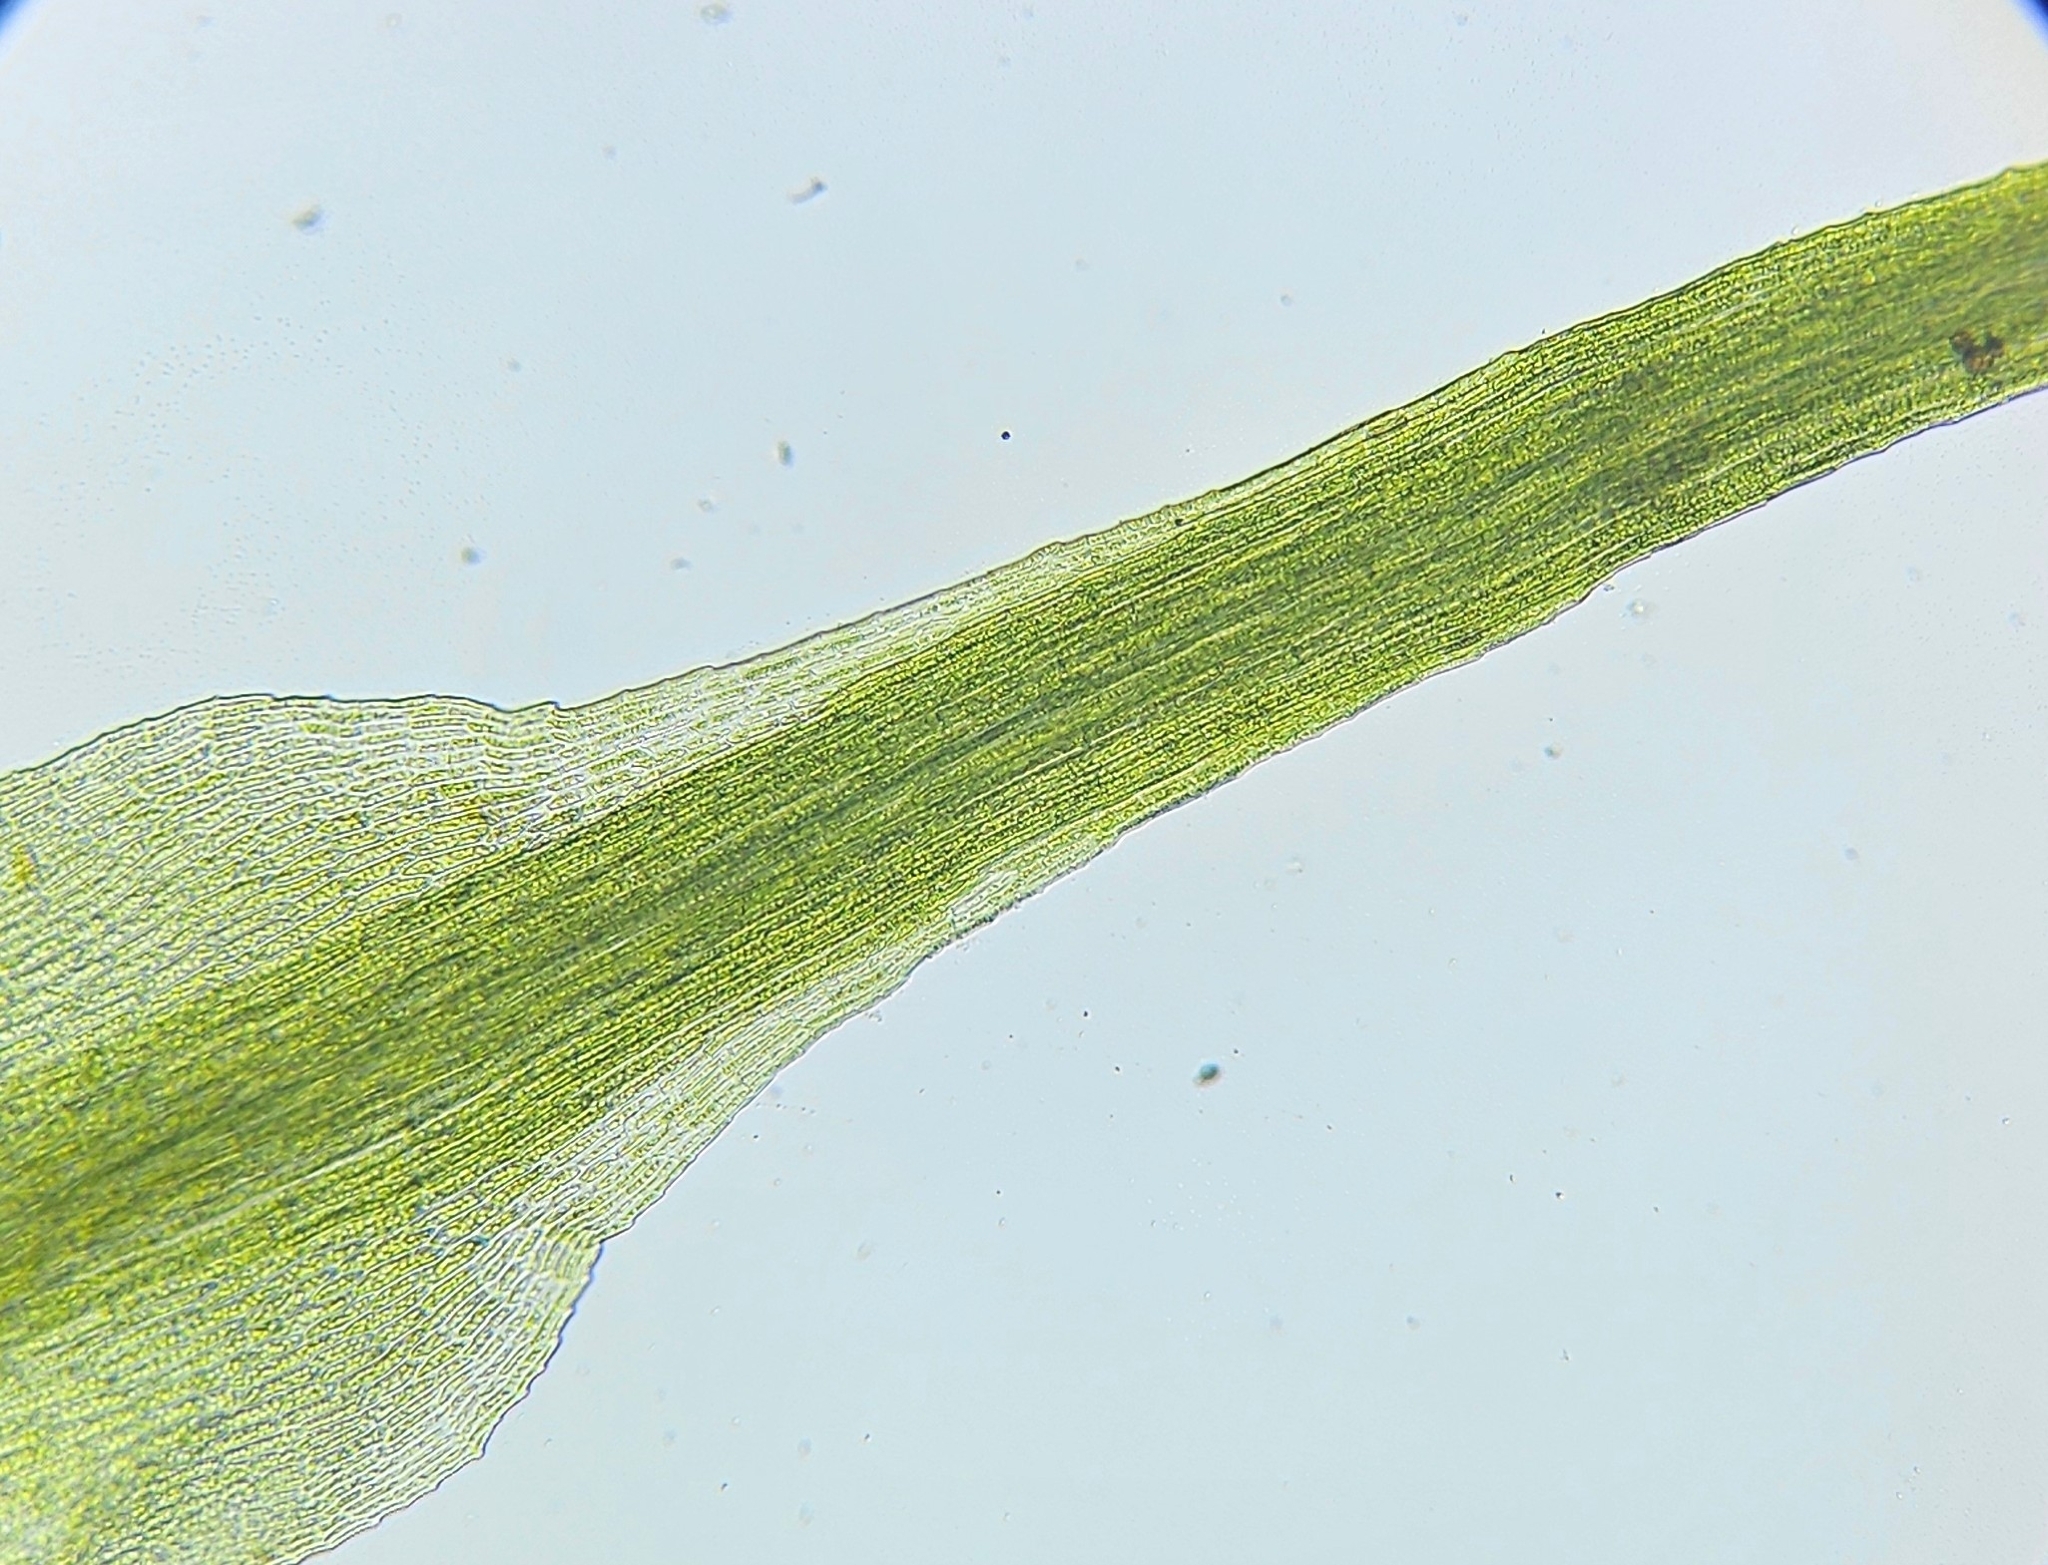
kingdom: Plantae
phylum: Bryophyta
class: Bryopsida
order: Dicranales
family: Dicranellaceae
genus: Dicranella
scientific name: Dicranella heteromalla
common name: Silky forklet moss
